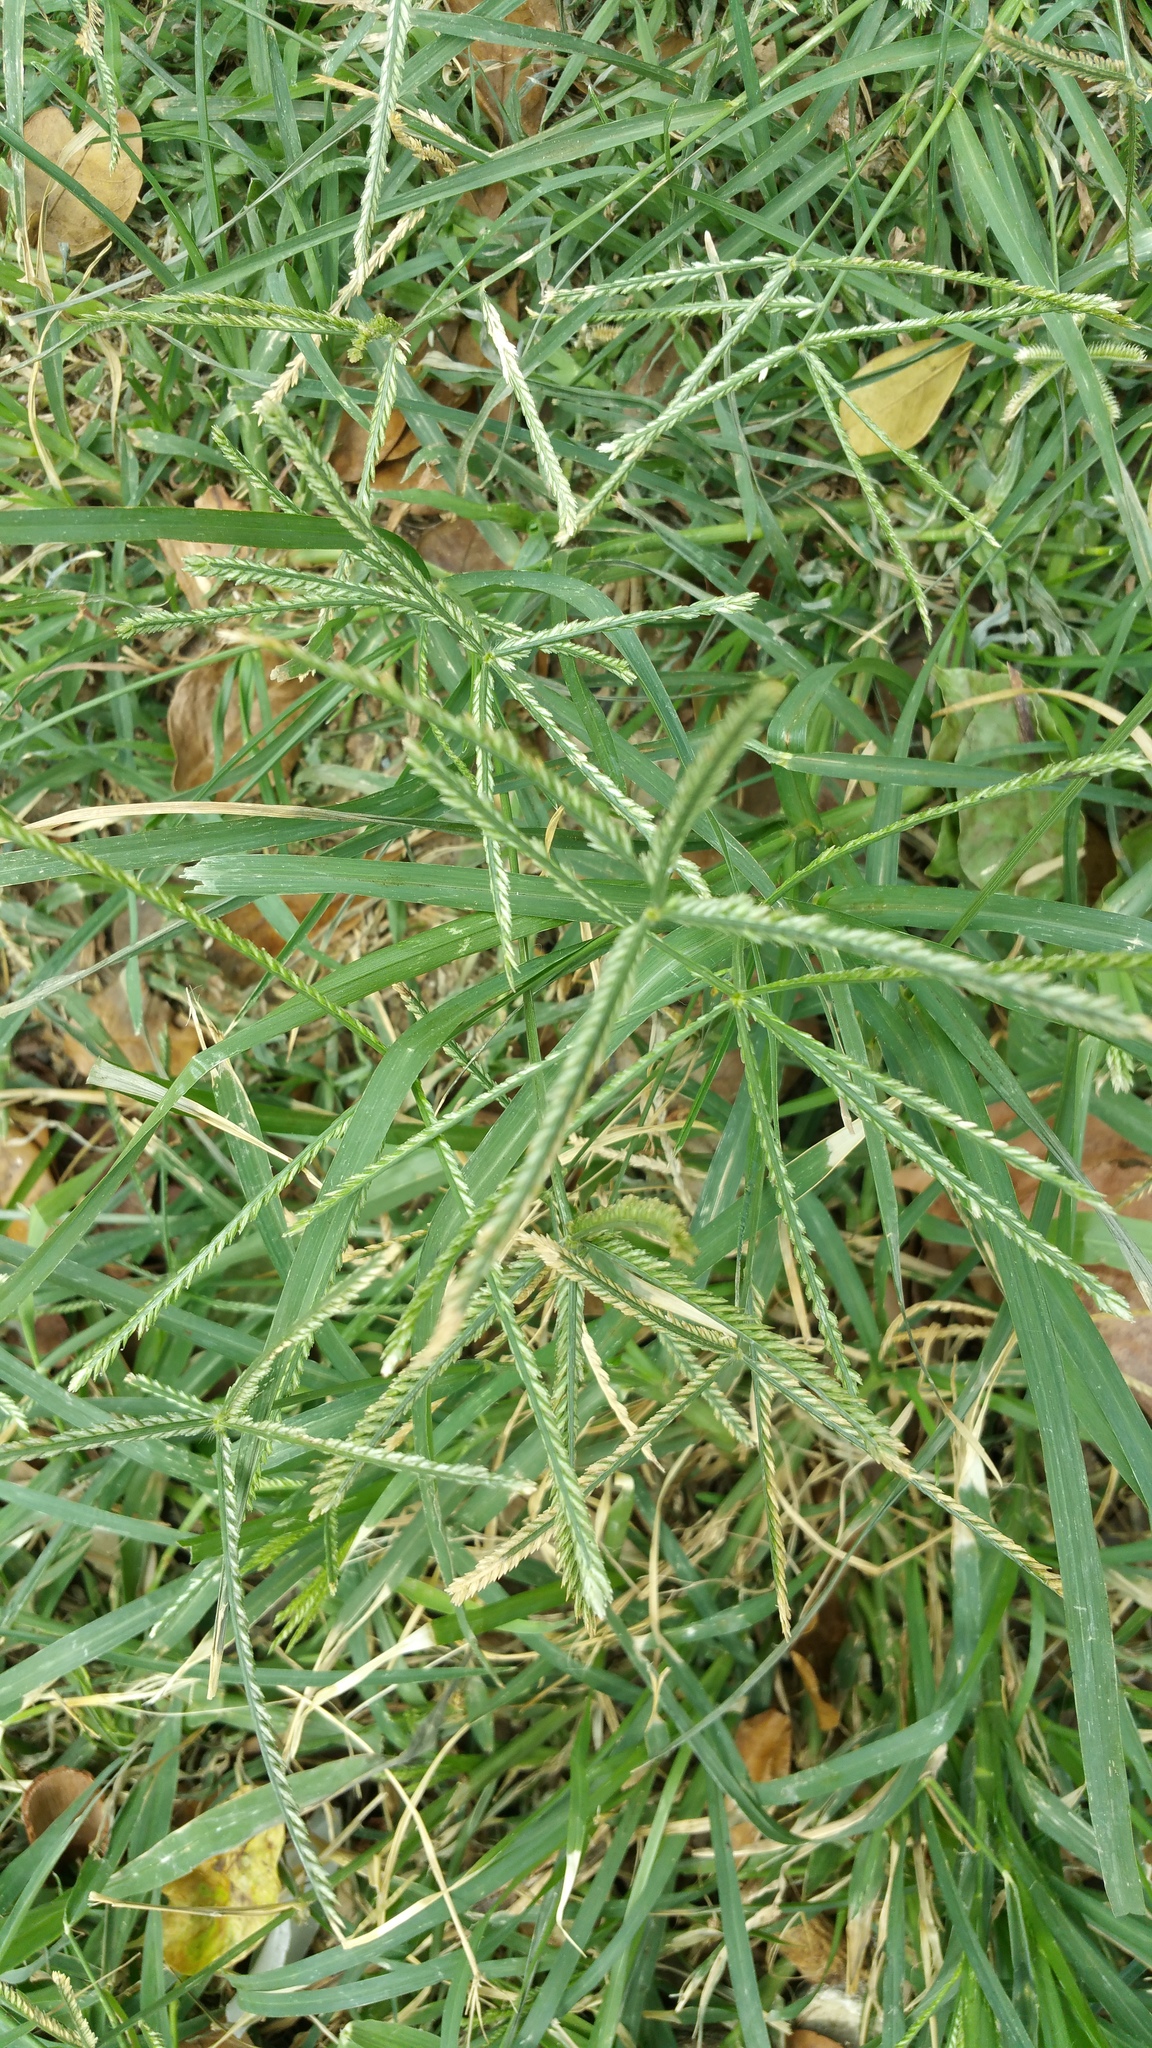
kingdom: Plantae
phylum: Tracheophyta
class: Liliopsida
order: Poales
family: Poaceae
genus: Eleusine
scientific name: Eleusine indica
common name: Yard-grass
